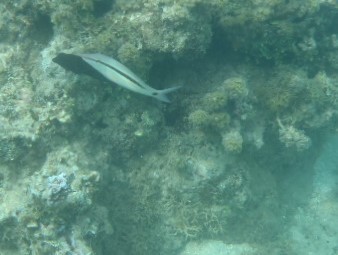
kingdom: Animalia
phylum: Chordata
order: Perciformes
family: Mullidae
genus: Parupeneus
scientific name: Parupeneus barberinus
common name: Dash-and-dot goatfish
